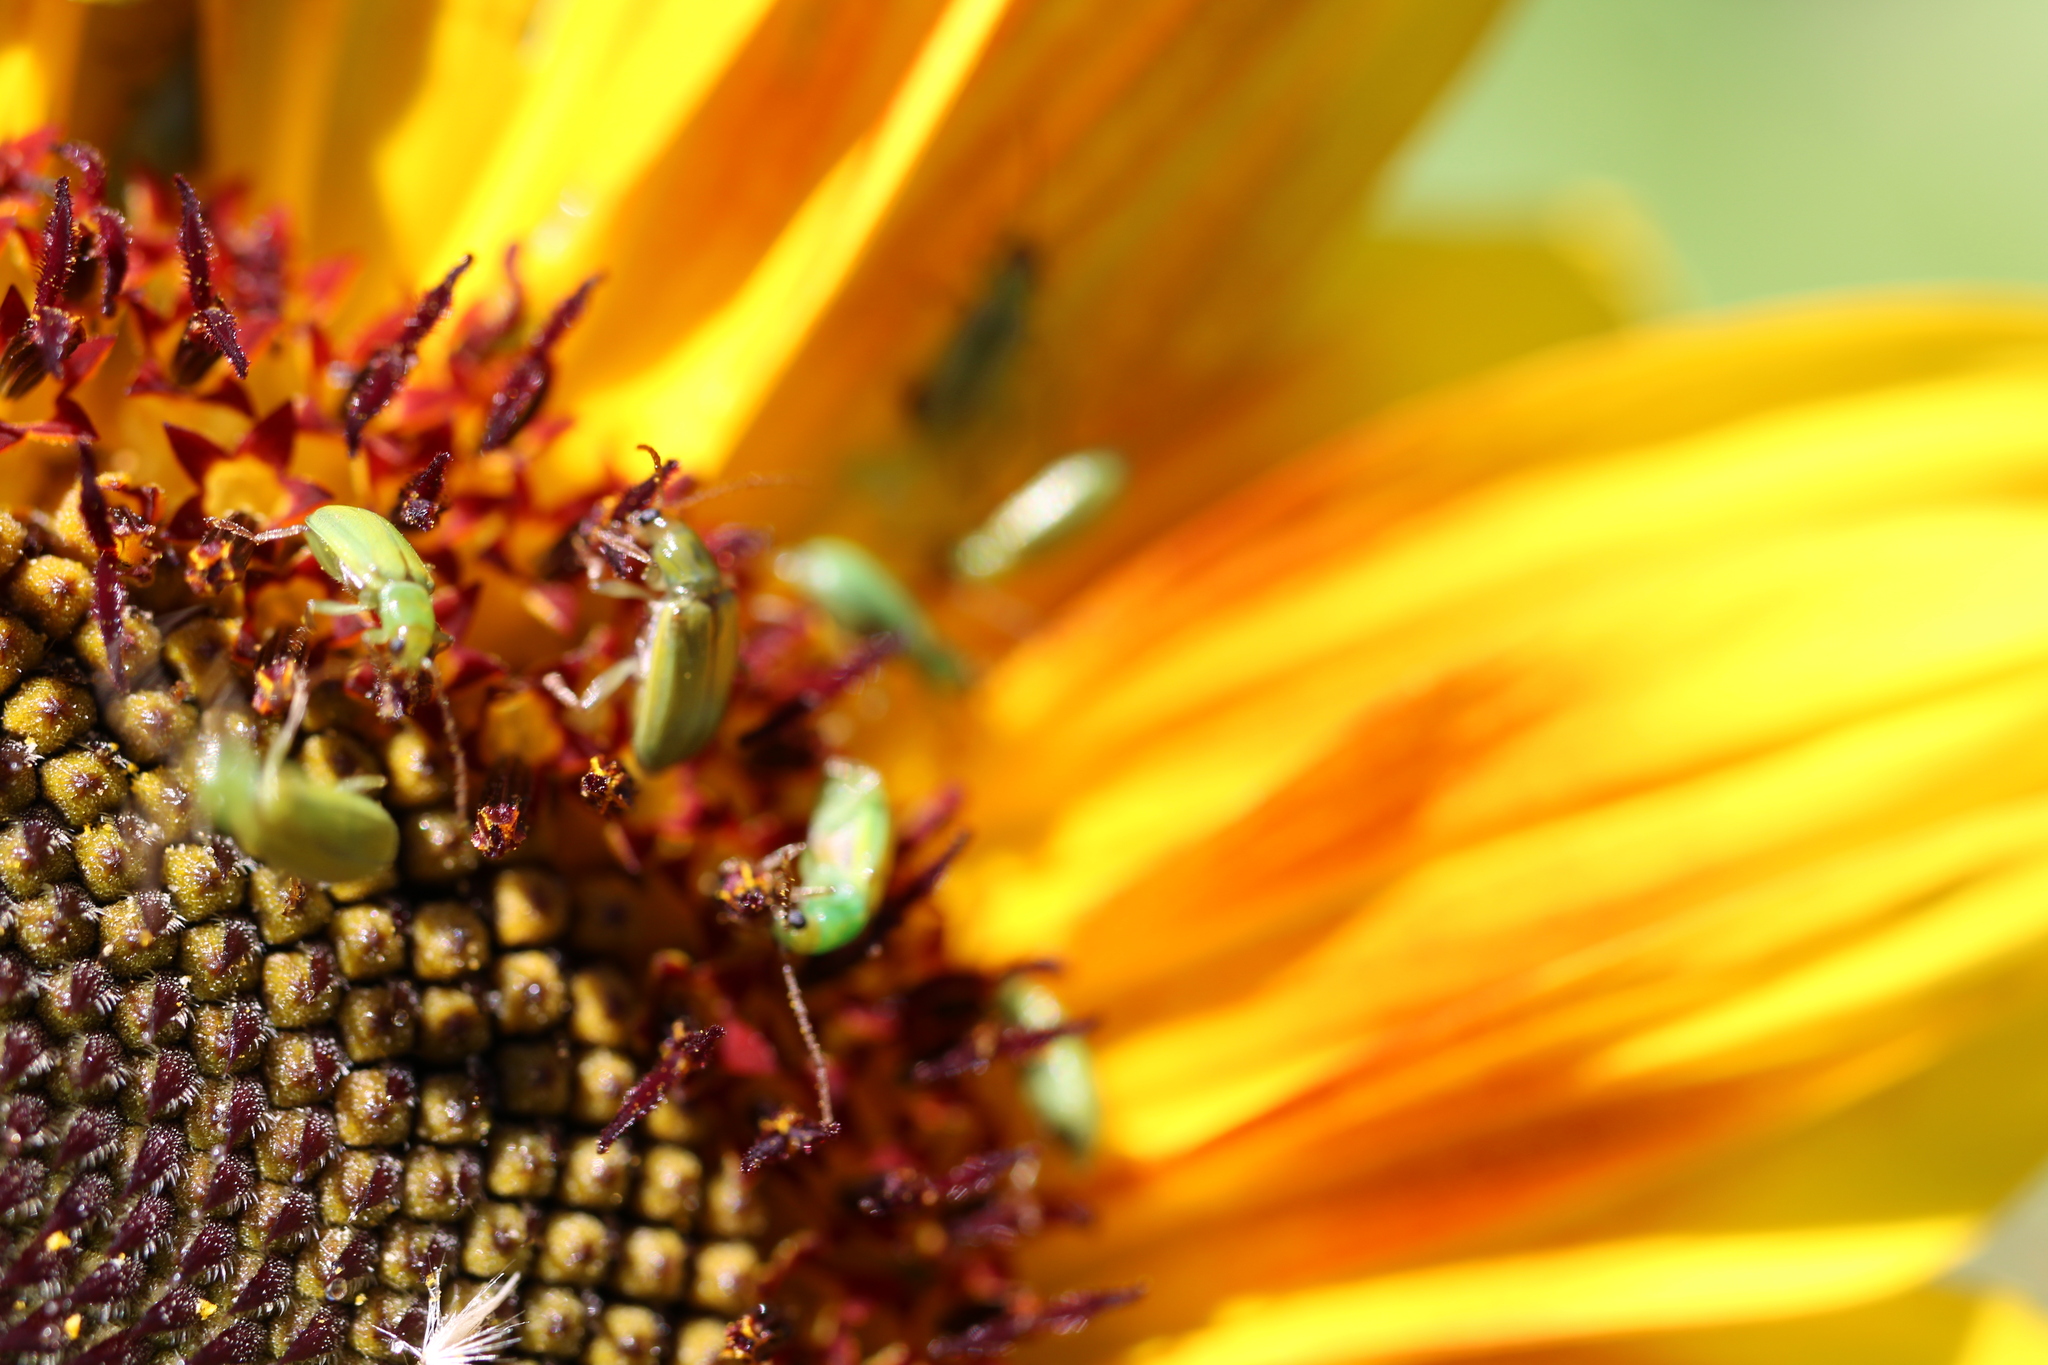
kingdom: Animalia
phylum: Arthropoda
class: Insecta
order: Coleoptera
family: Chrysomelidae
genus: Diabrotica
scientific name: Diabrotica barberi
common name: Northern corn rootworm
